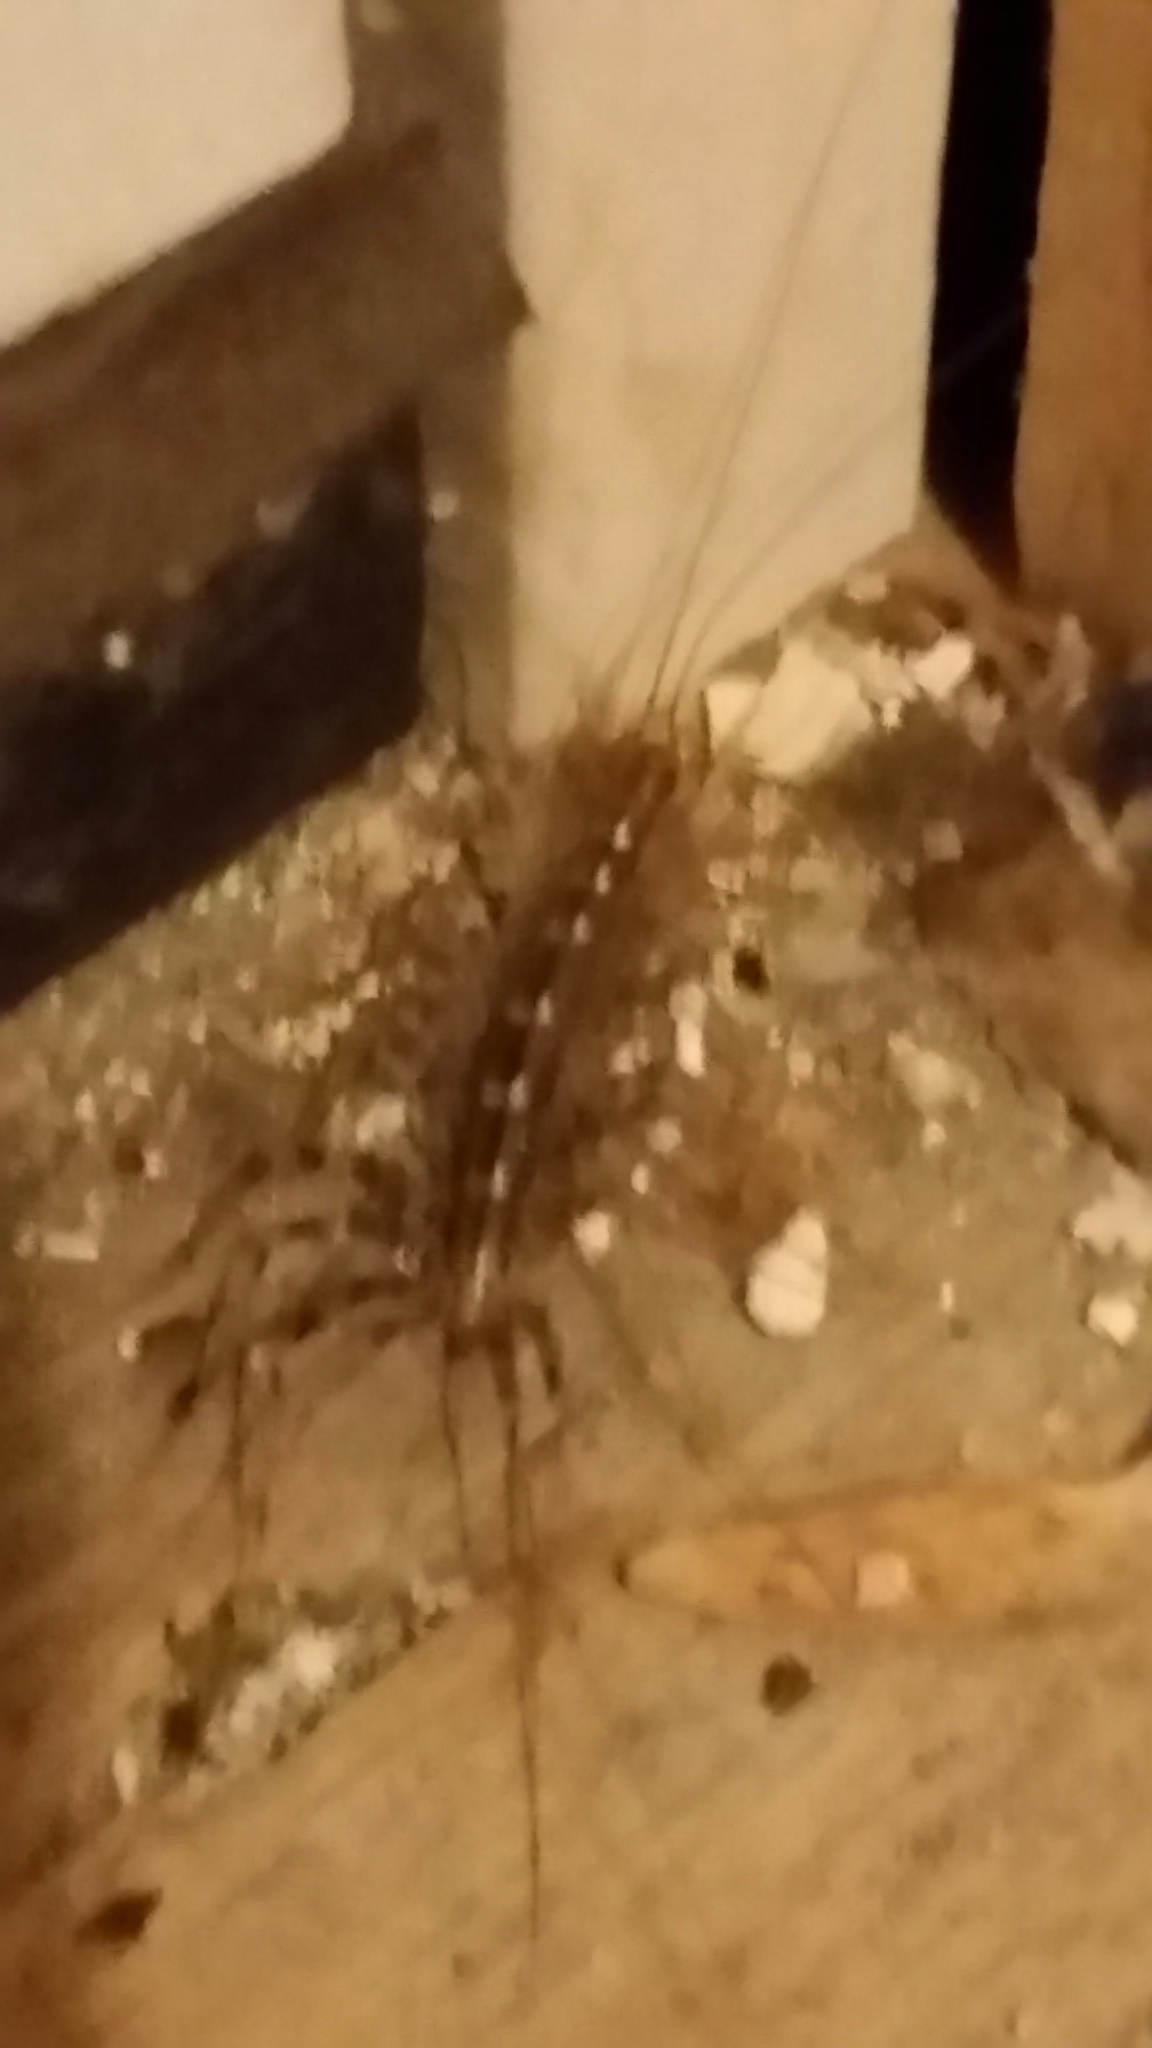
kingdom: Animalia
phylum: Arthropoda
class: Chilopoda
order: Scutigeromorpha
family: Scutigeridae
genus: Scutigera
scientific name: Scutigera coleoptrata
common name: House centipede
